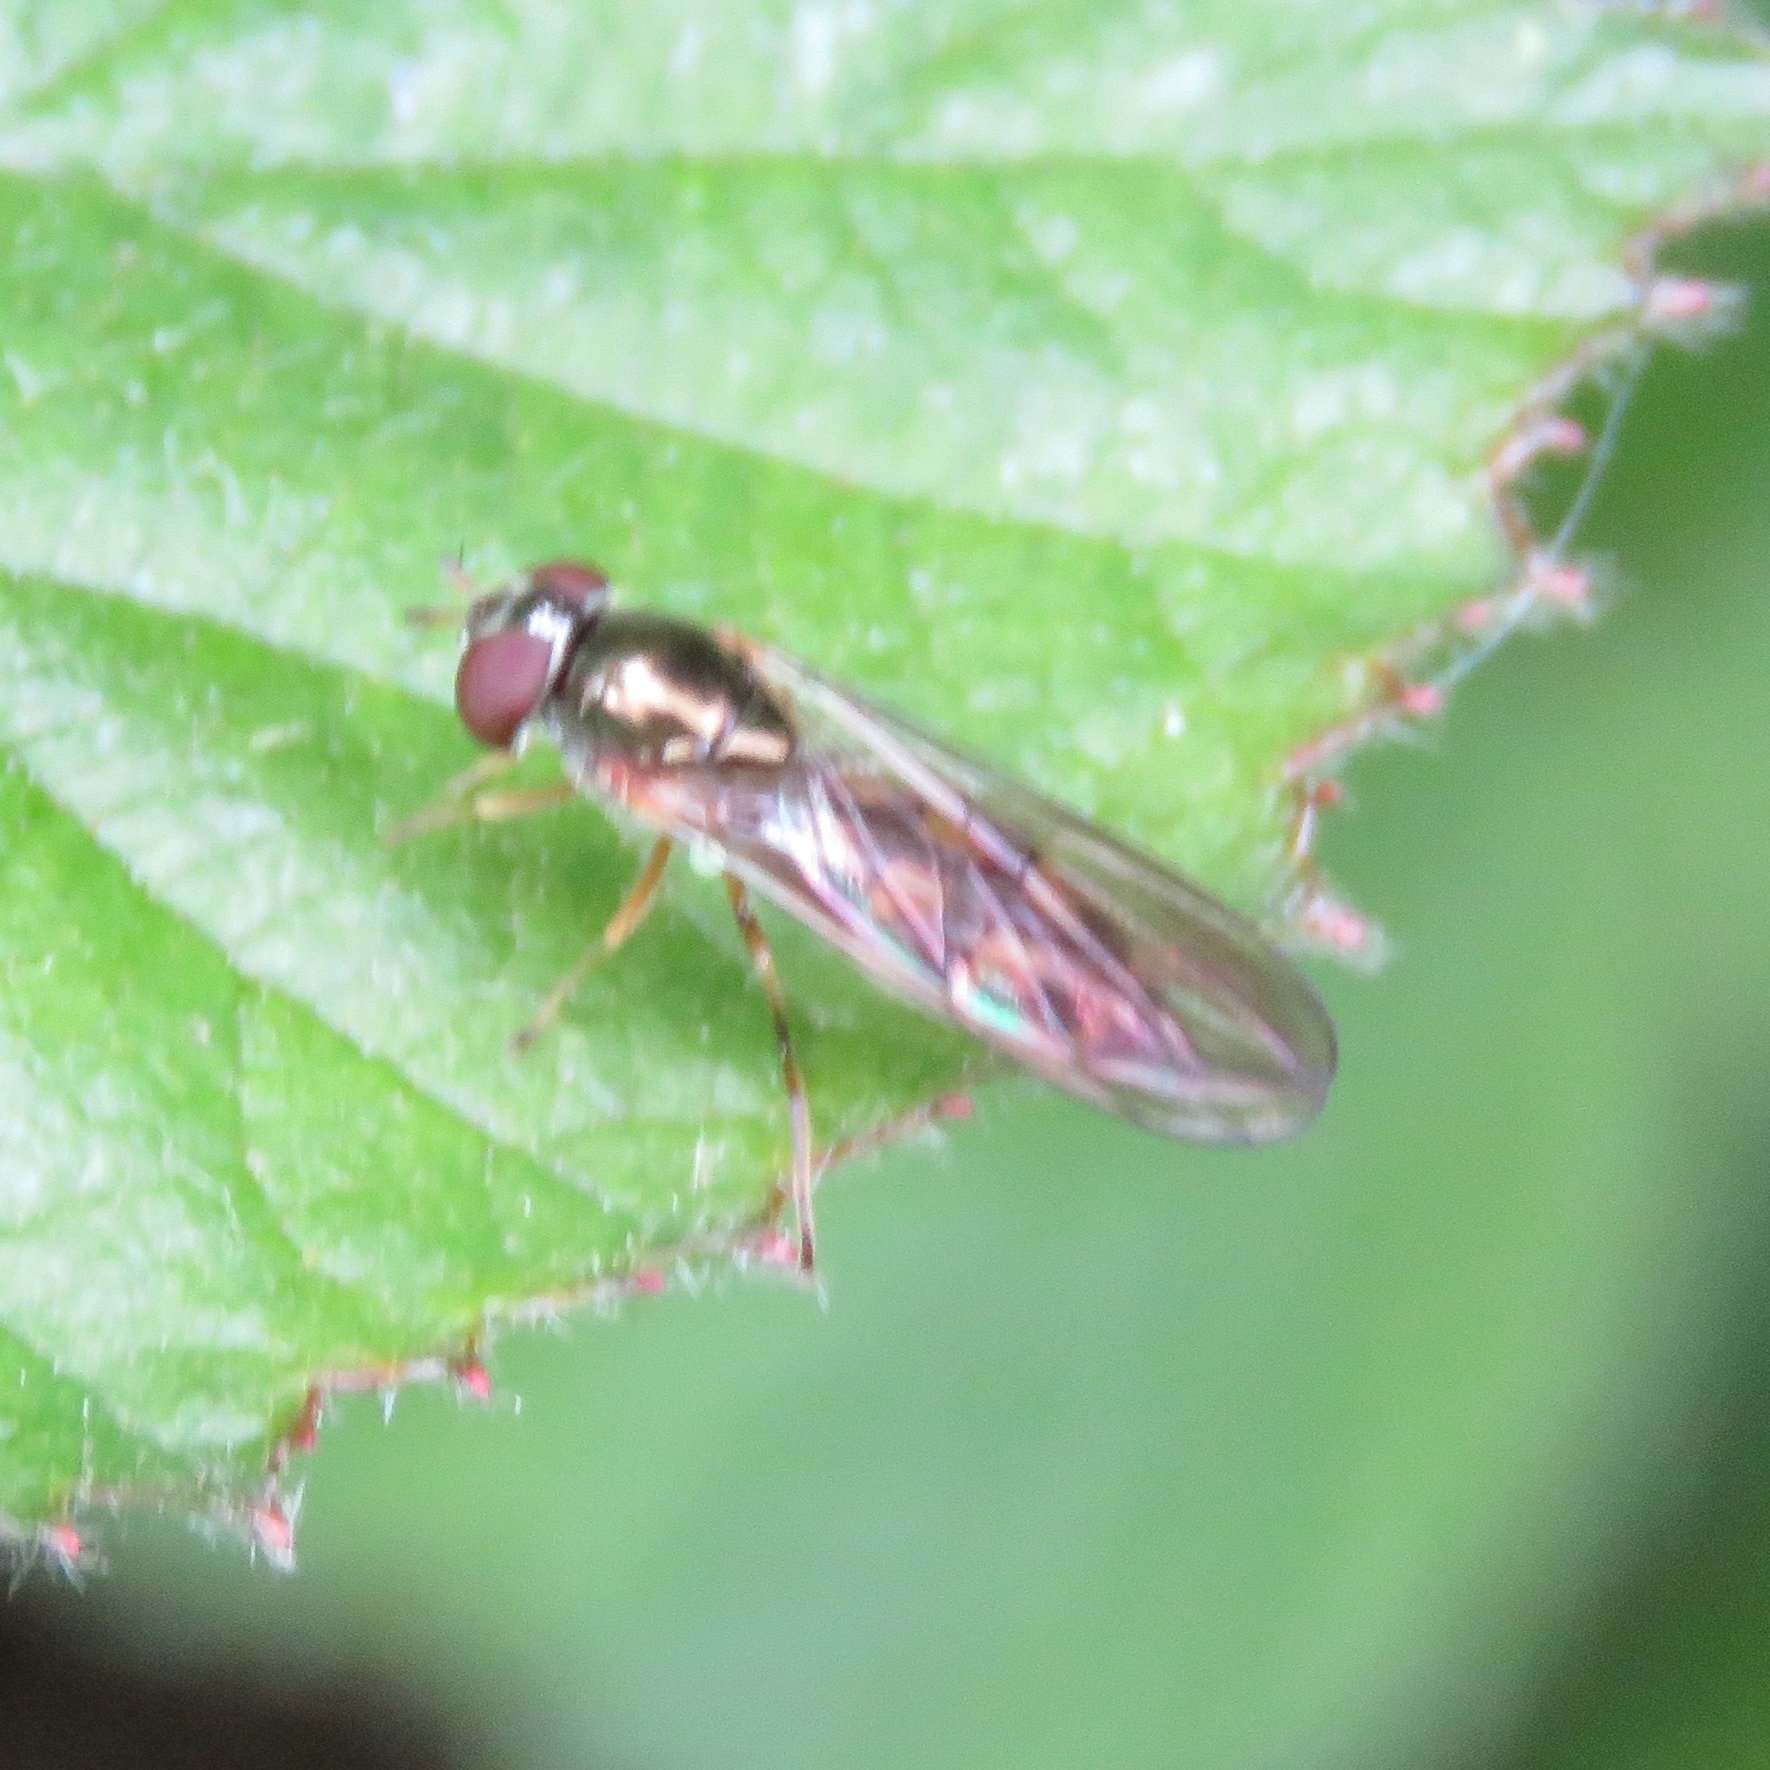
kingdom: Animalia
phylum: Arthropoda
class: Insecta
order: Diptera
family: Syrphidae
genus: Melanostoma
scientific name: Melanostoma scalare
